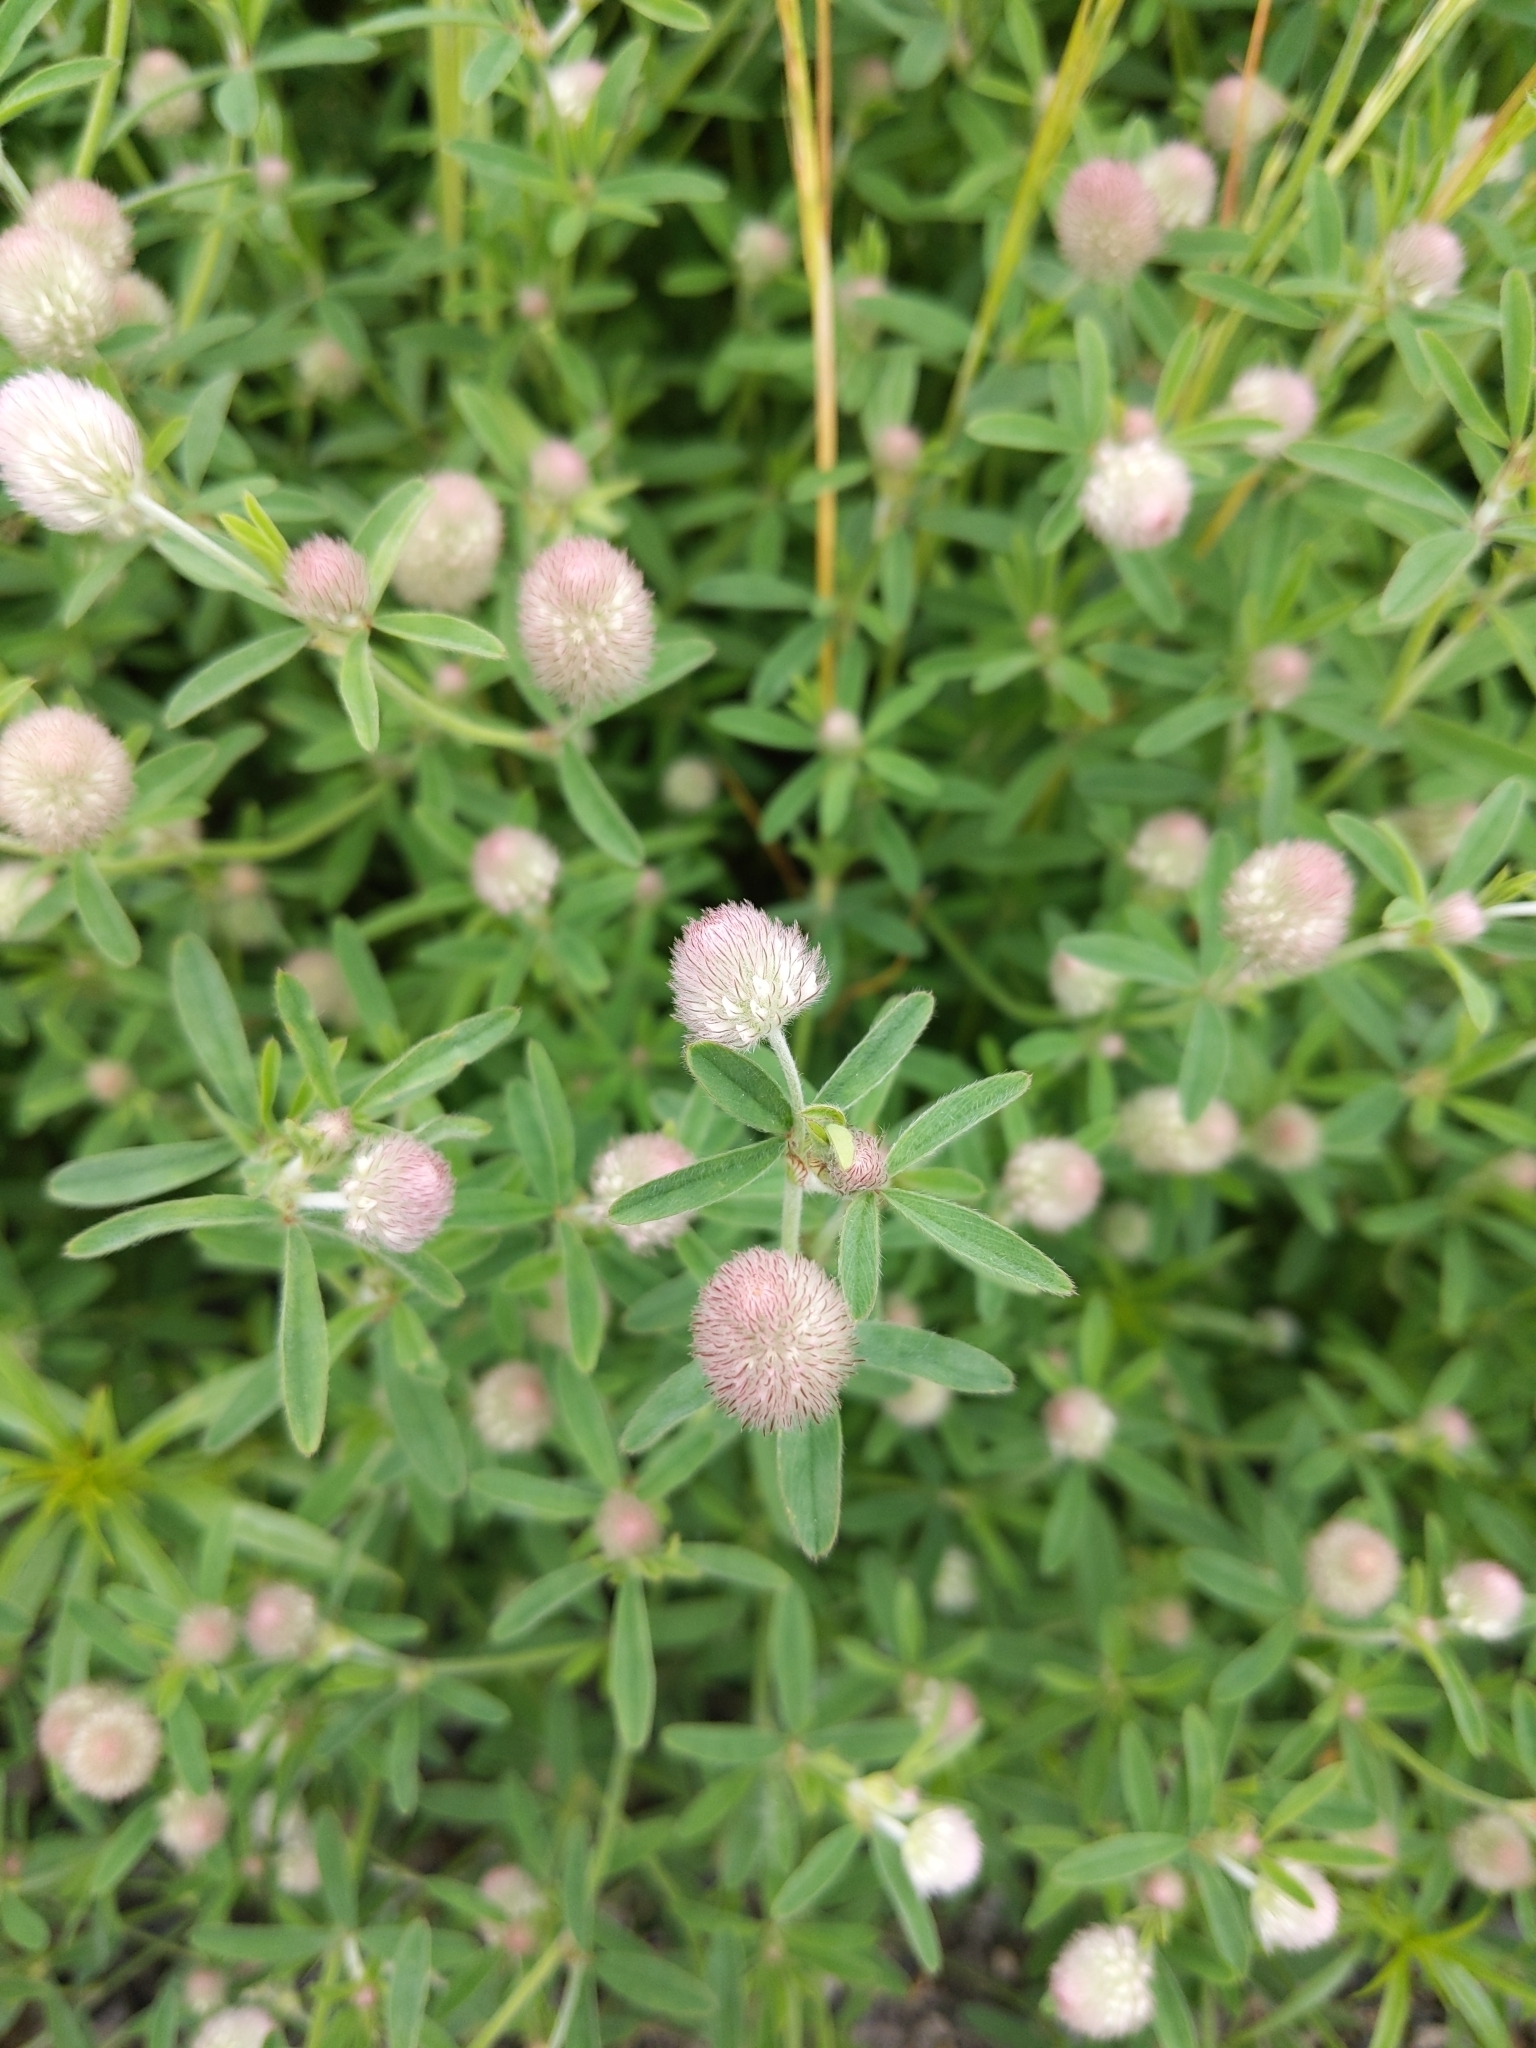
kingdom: Plantae
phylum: Tracheophyta
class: Magnoliopsida
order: Fabales
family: Fabaceae
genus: Trifolium
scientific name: Trifolium arvense
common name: Hare's-foot clover
